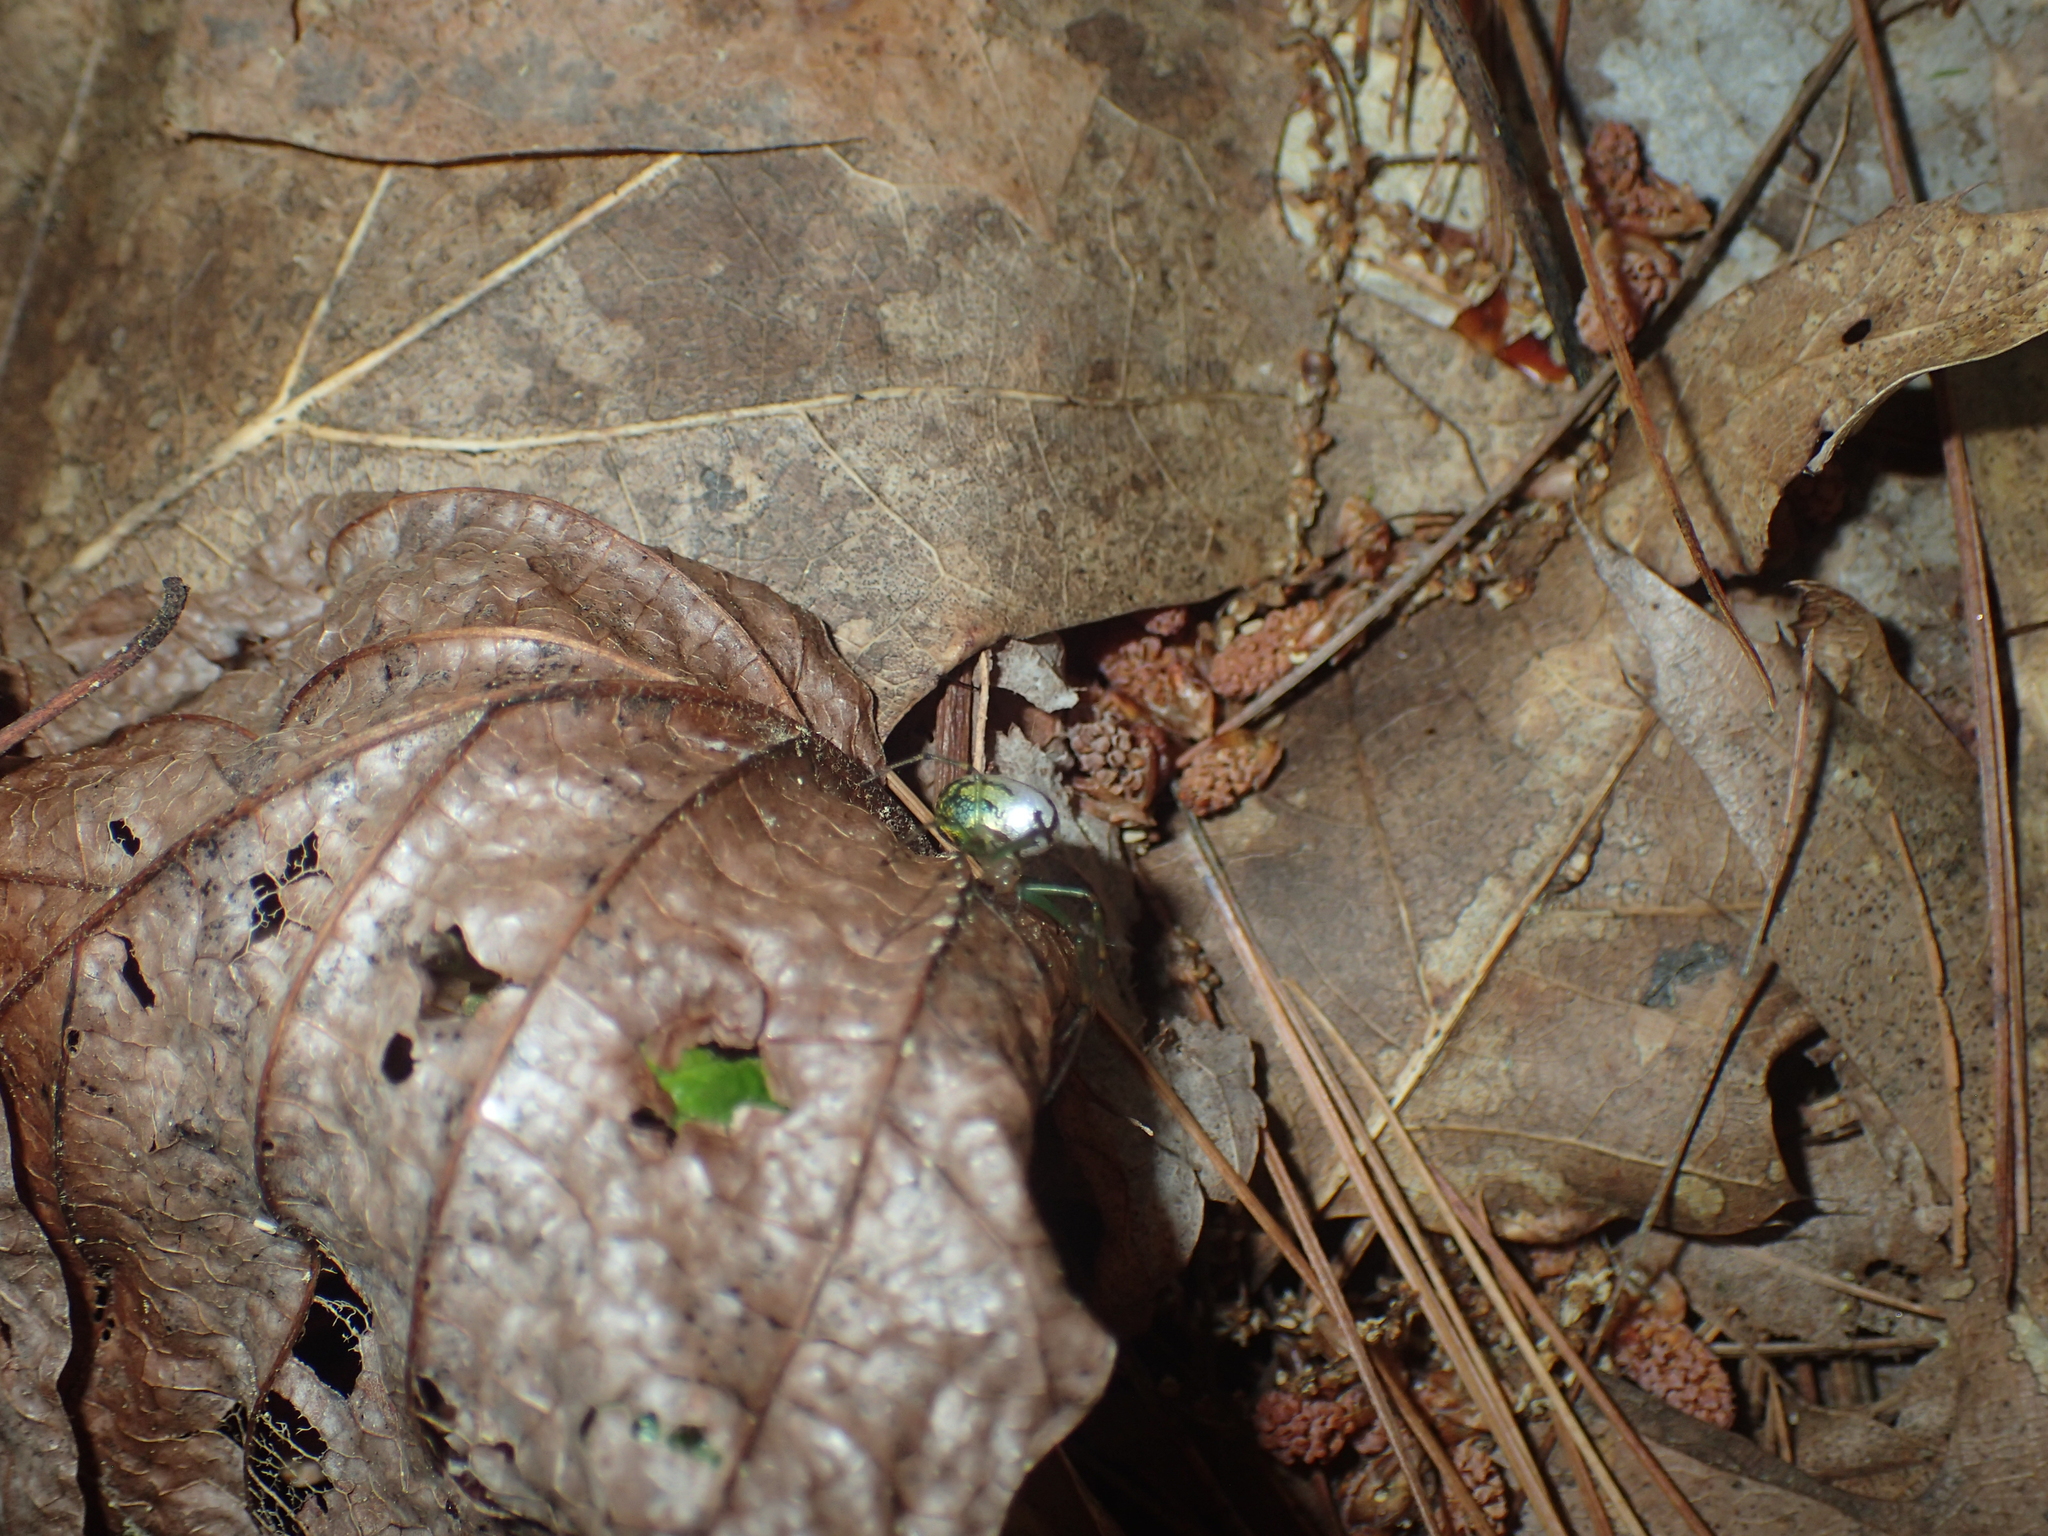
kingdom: Animalia
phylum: Arthropoda
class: Arachnida
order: Araneae
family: Tetragnathidae
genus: Leucauge
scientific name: Leucauge venusta
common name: Longjawed orb weavers
